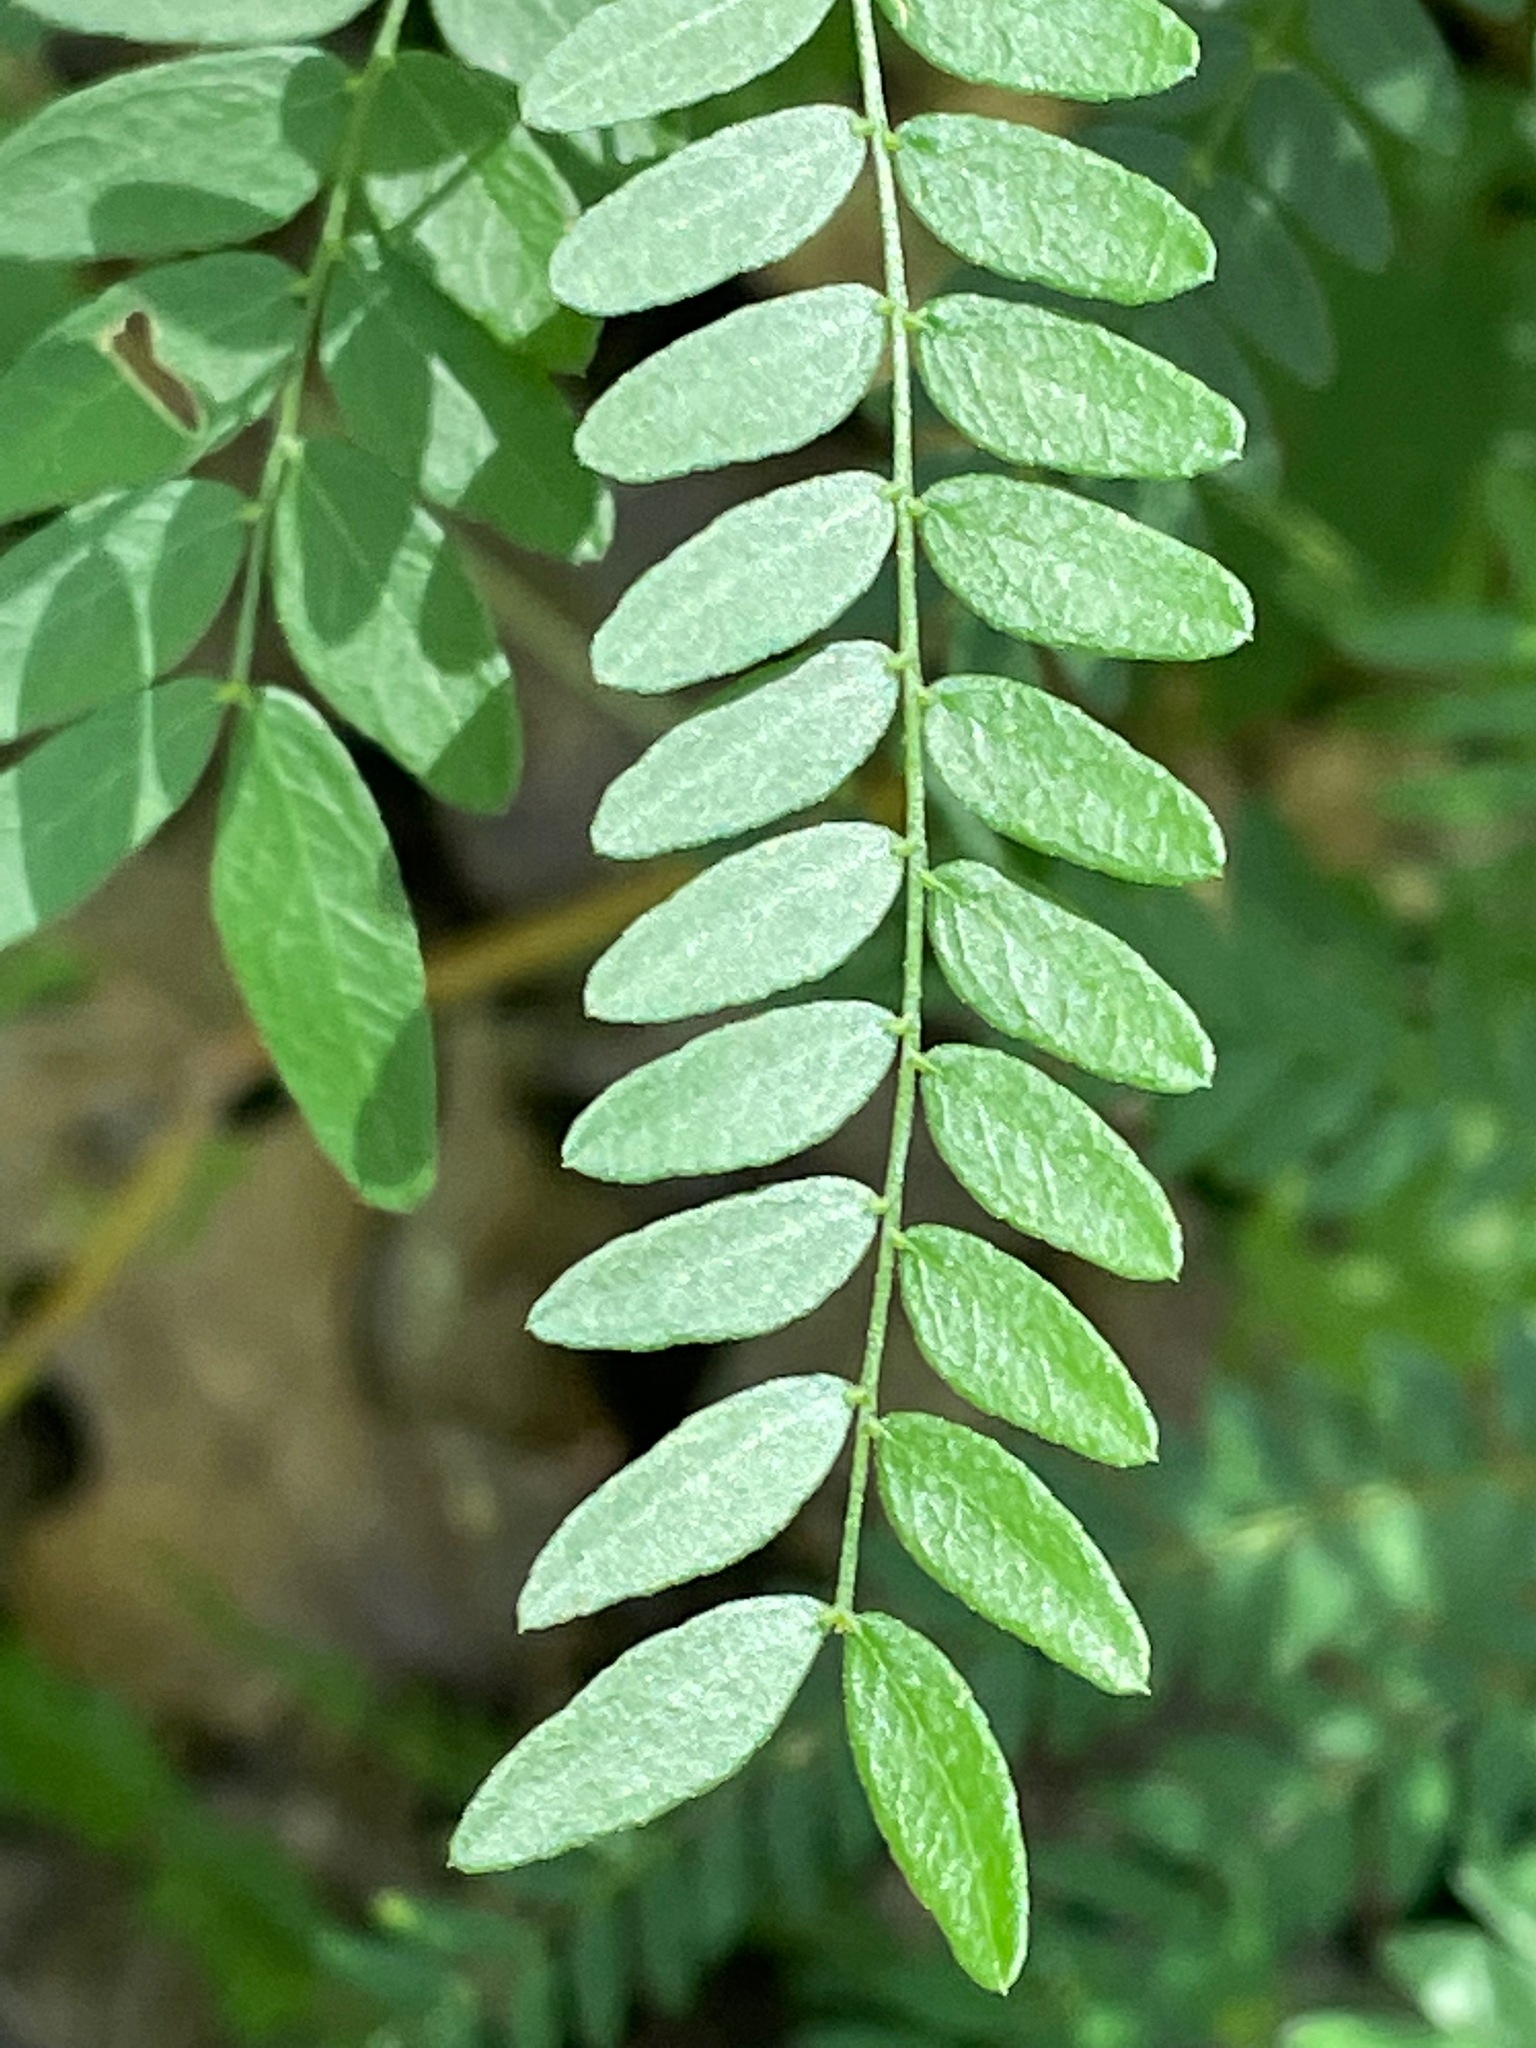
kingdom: Plantae
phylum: Tracheophyta
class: Magnoliopsida
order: Fabales
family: Fabaceae
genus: Gleditsia
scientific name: Gleditsia triacanthos
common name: Common honeylocust
